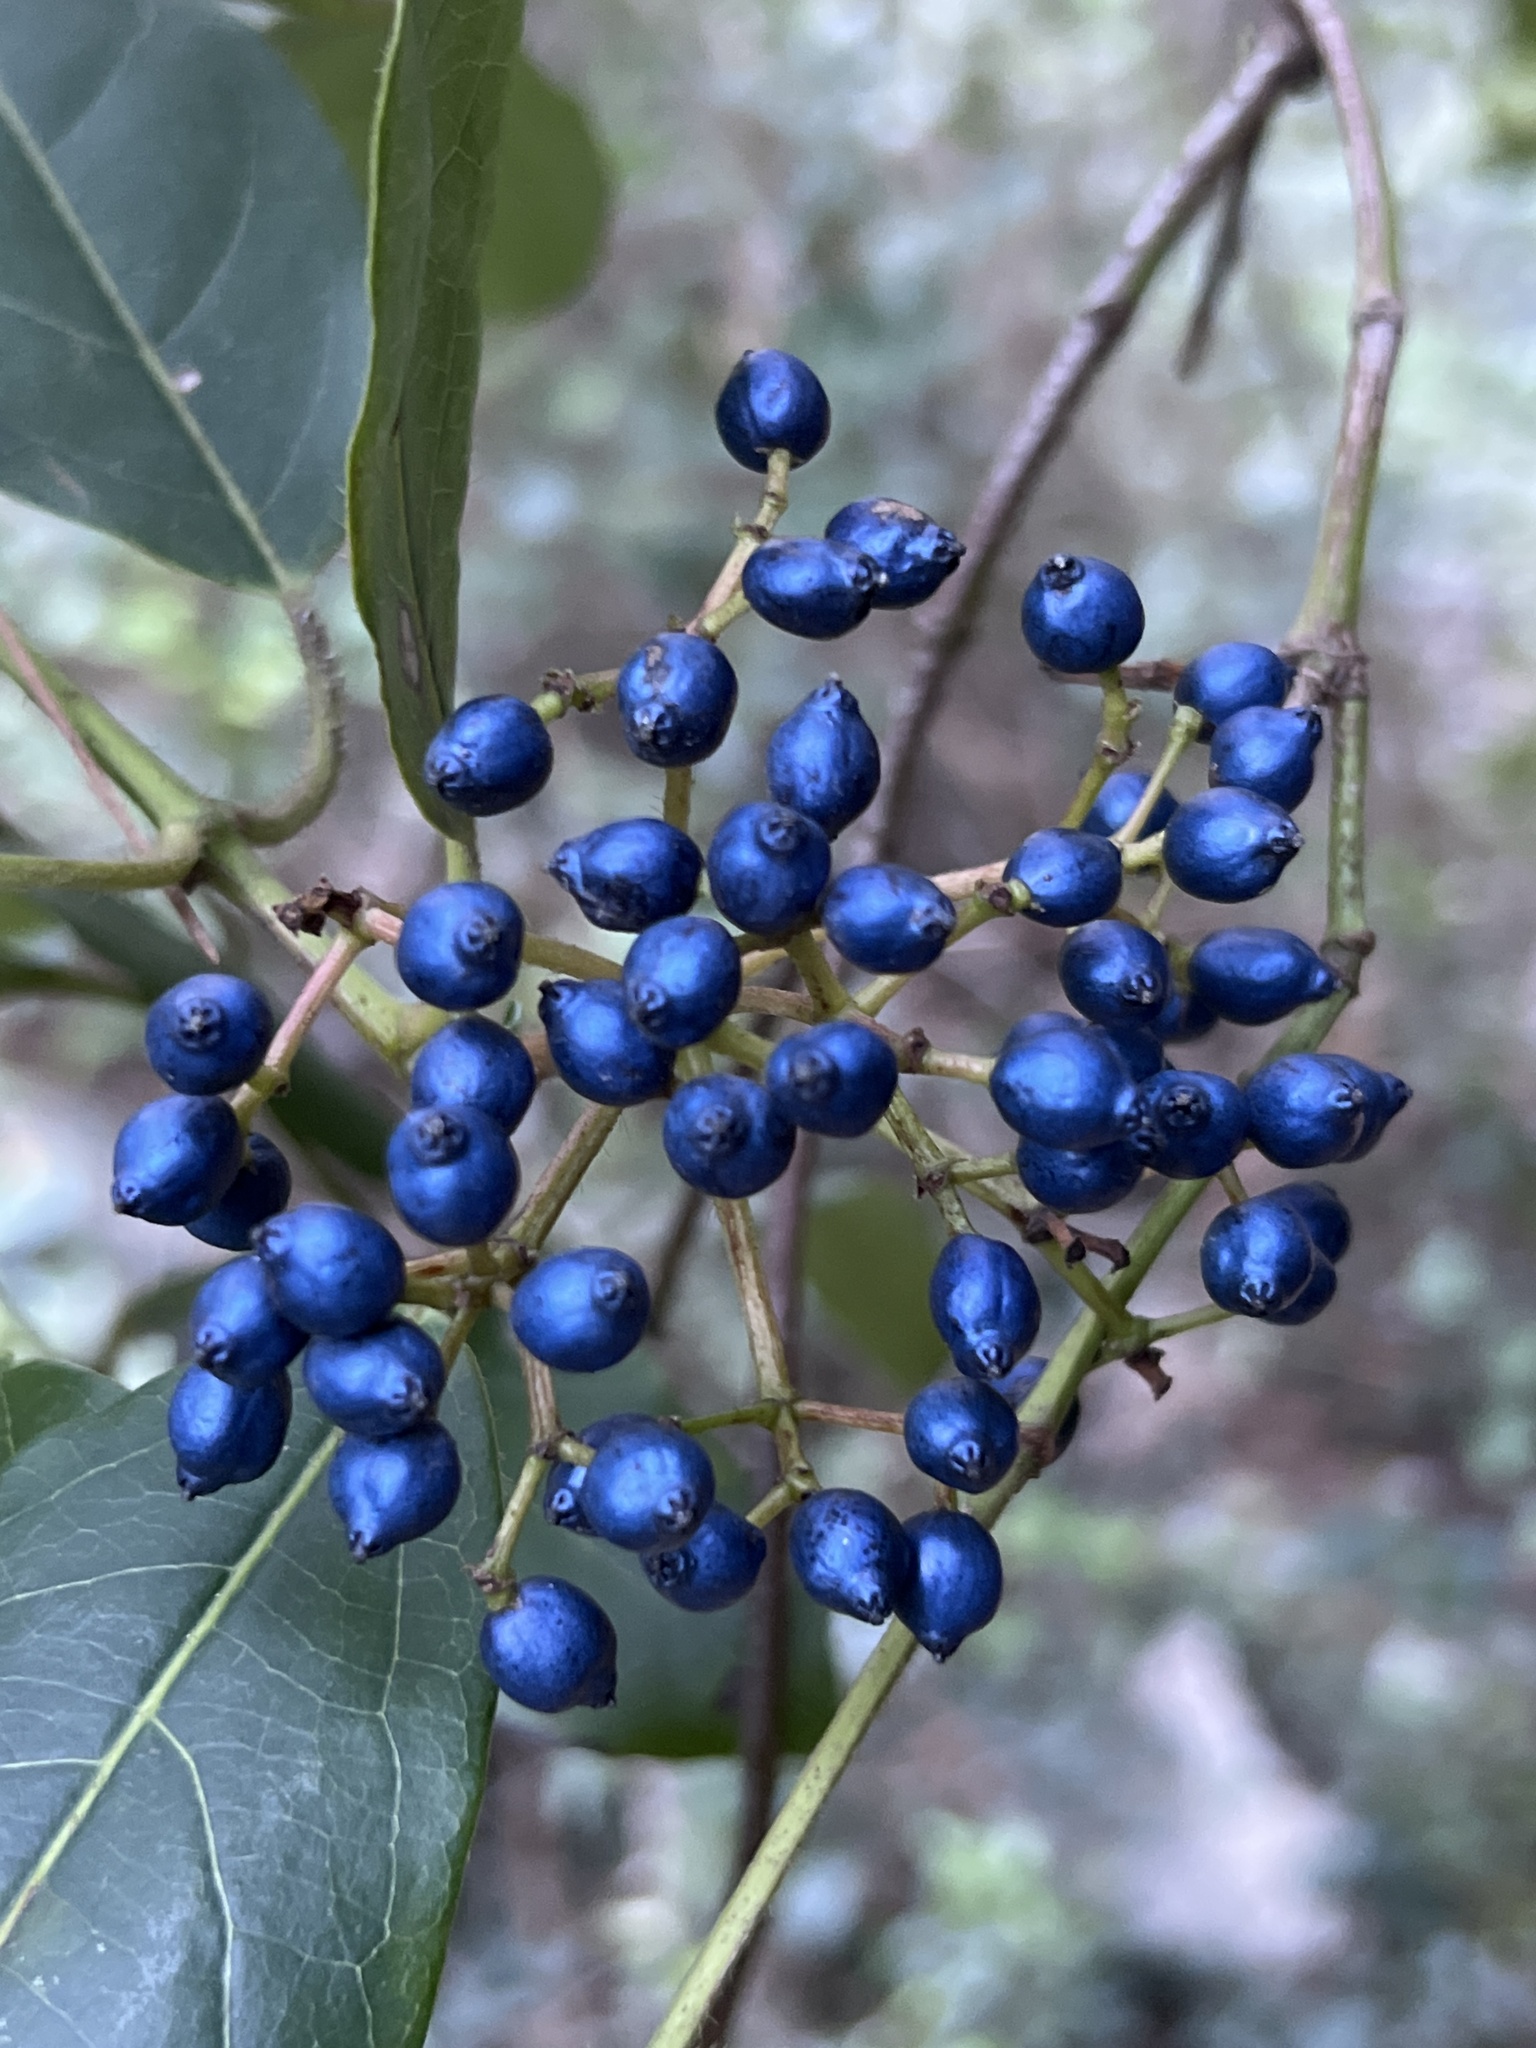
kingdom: Plantae
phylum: Tracheophyta
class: Magnoliopsida
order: Dipsacales
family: Viburnaceae
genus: Viburnum
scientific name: Viburnum tinus
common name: Laurustinus
